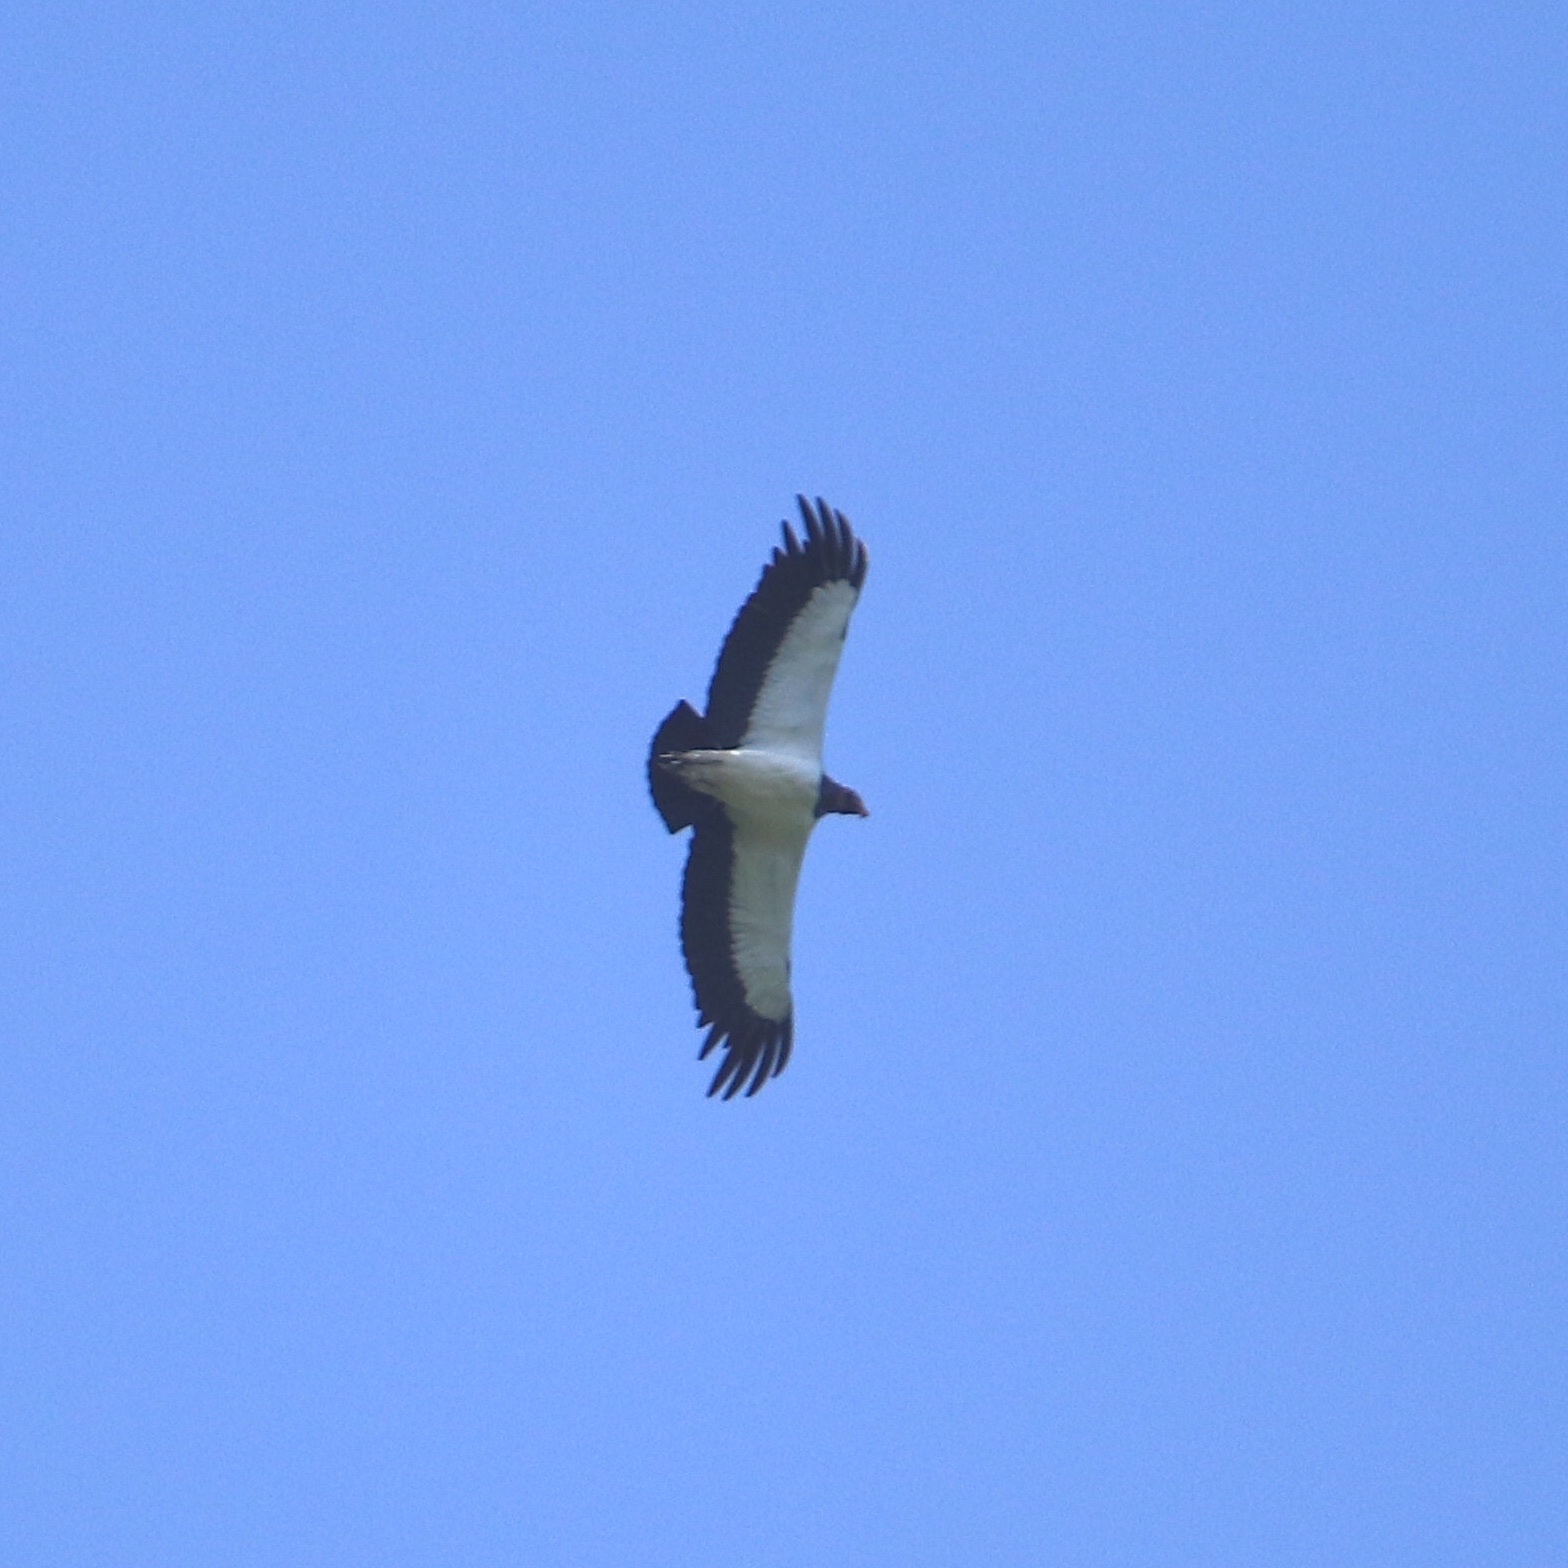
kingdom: Animalia
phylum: Chordata
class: Aves
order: Accipitriformes
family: Cathartidae
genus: Sarcoramphus
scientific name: Sarcoramphus papa
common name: King vulture
